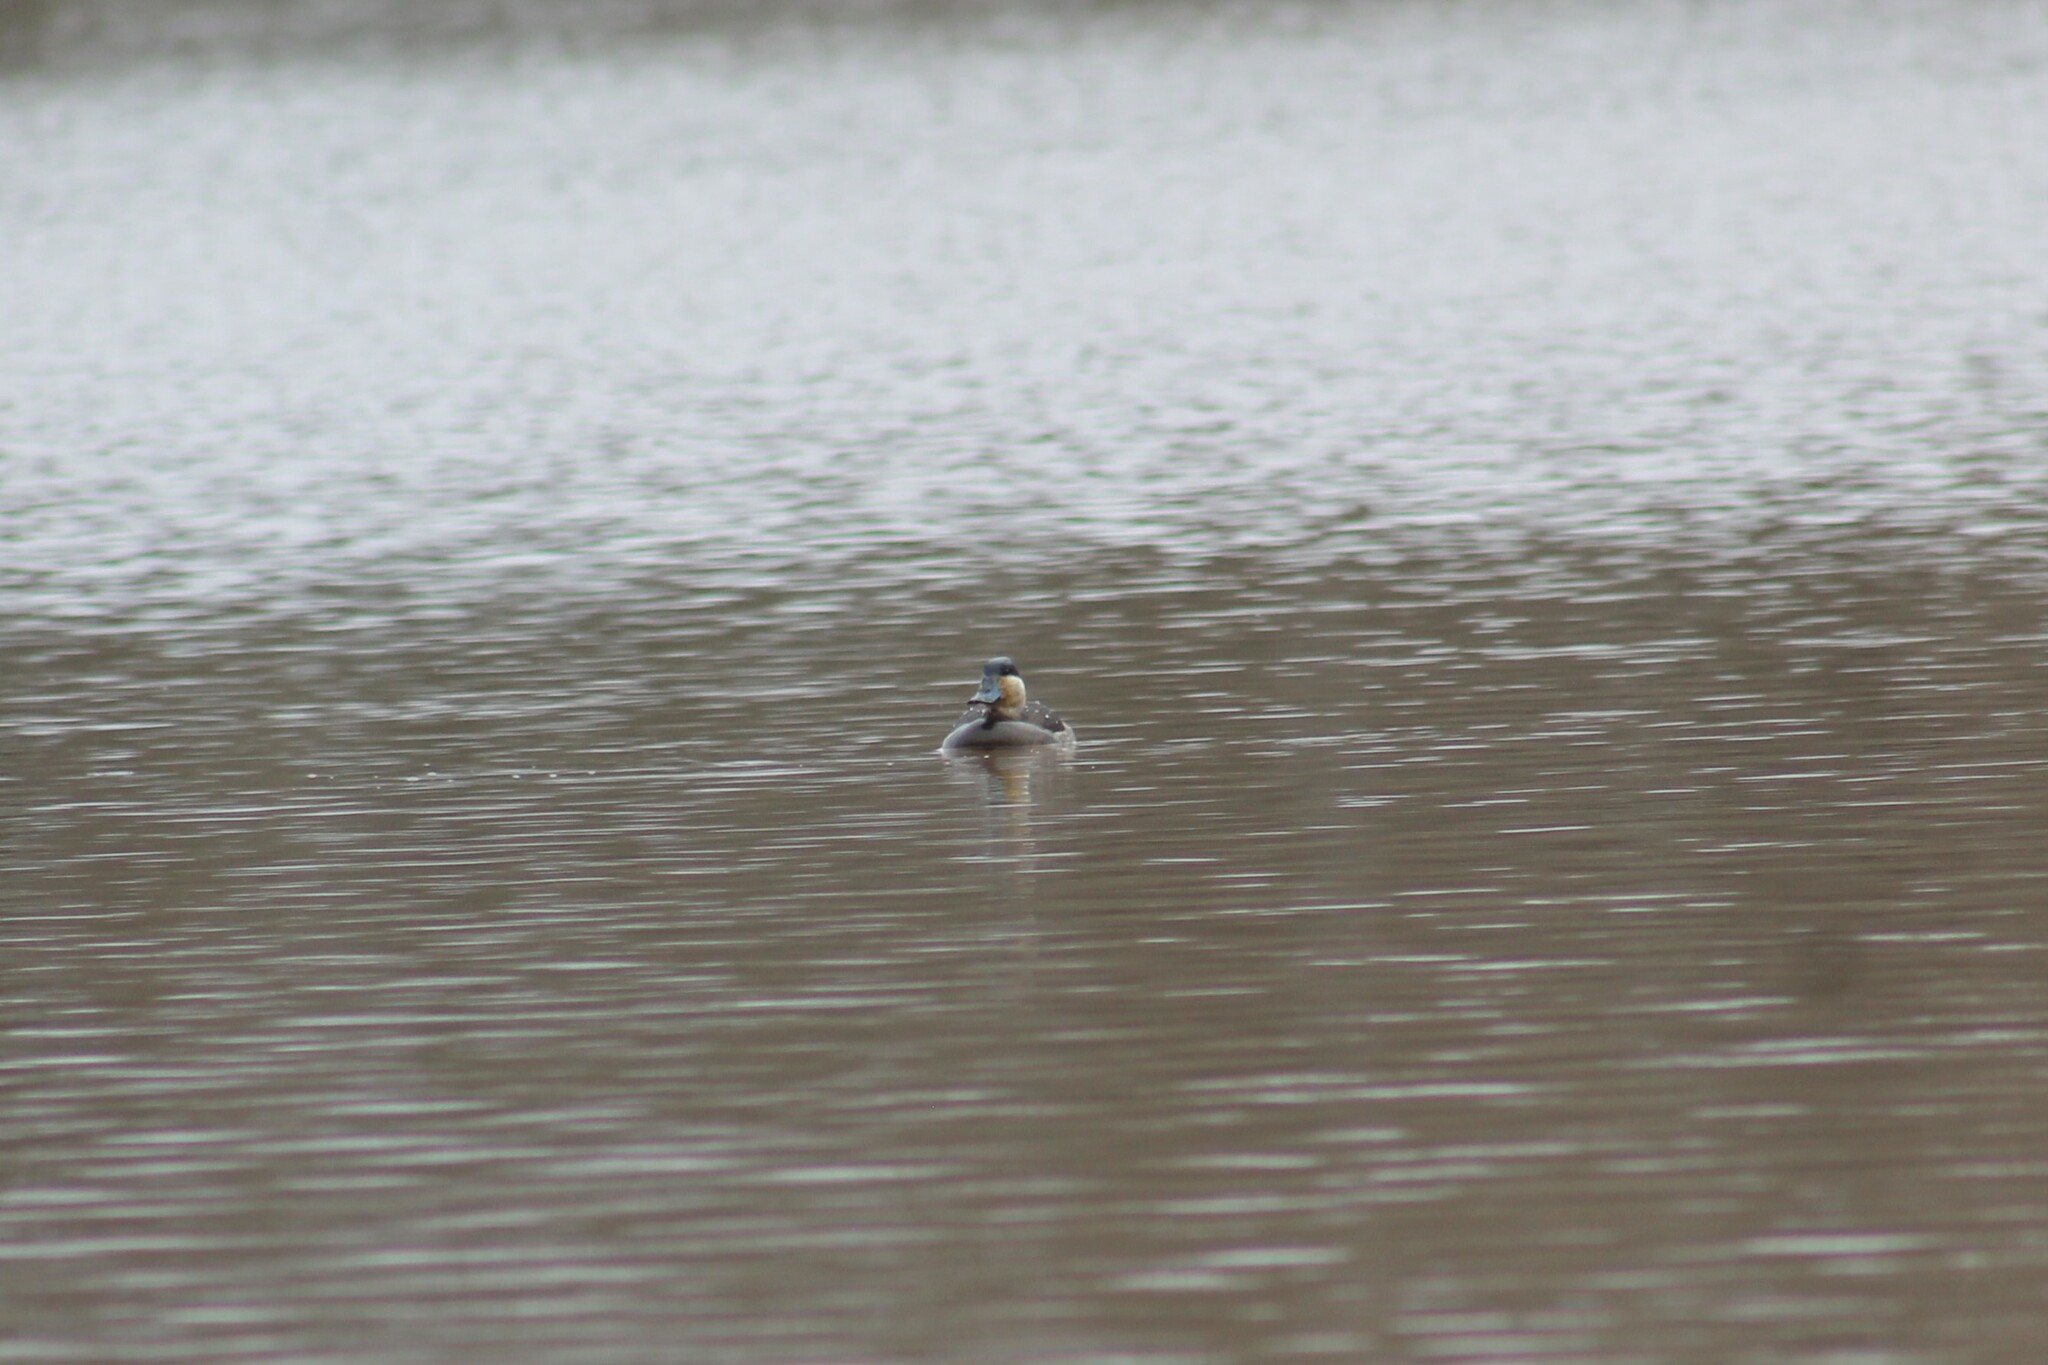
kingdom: Animalia
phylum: Chordata
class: Aves
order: Anseriformes
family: Anatidae
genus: Oxyura
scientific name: Oxyura jamaicensis
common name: Ruddy duck
